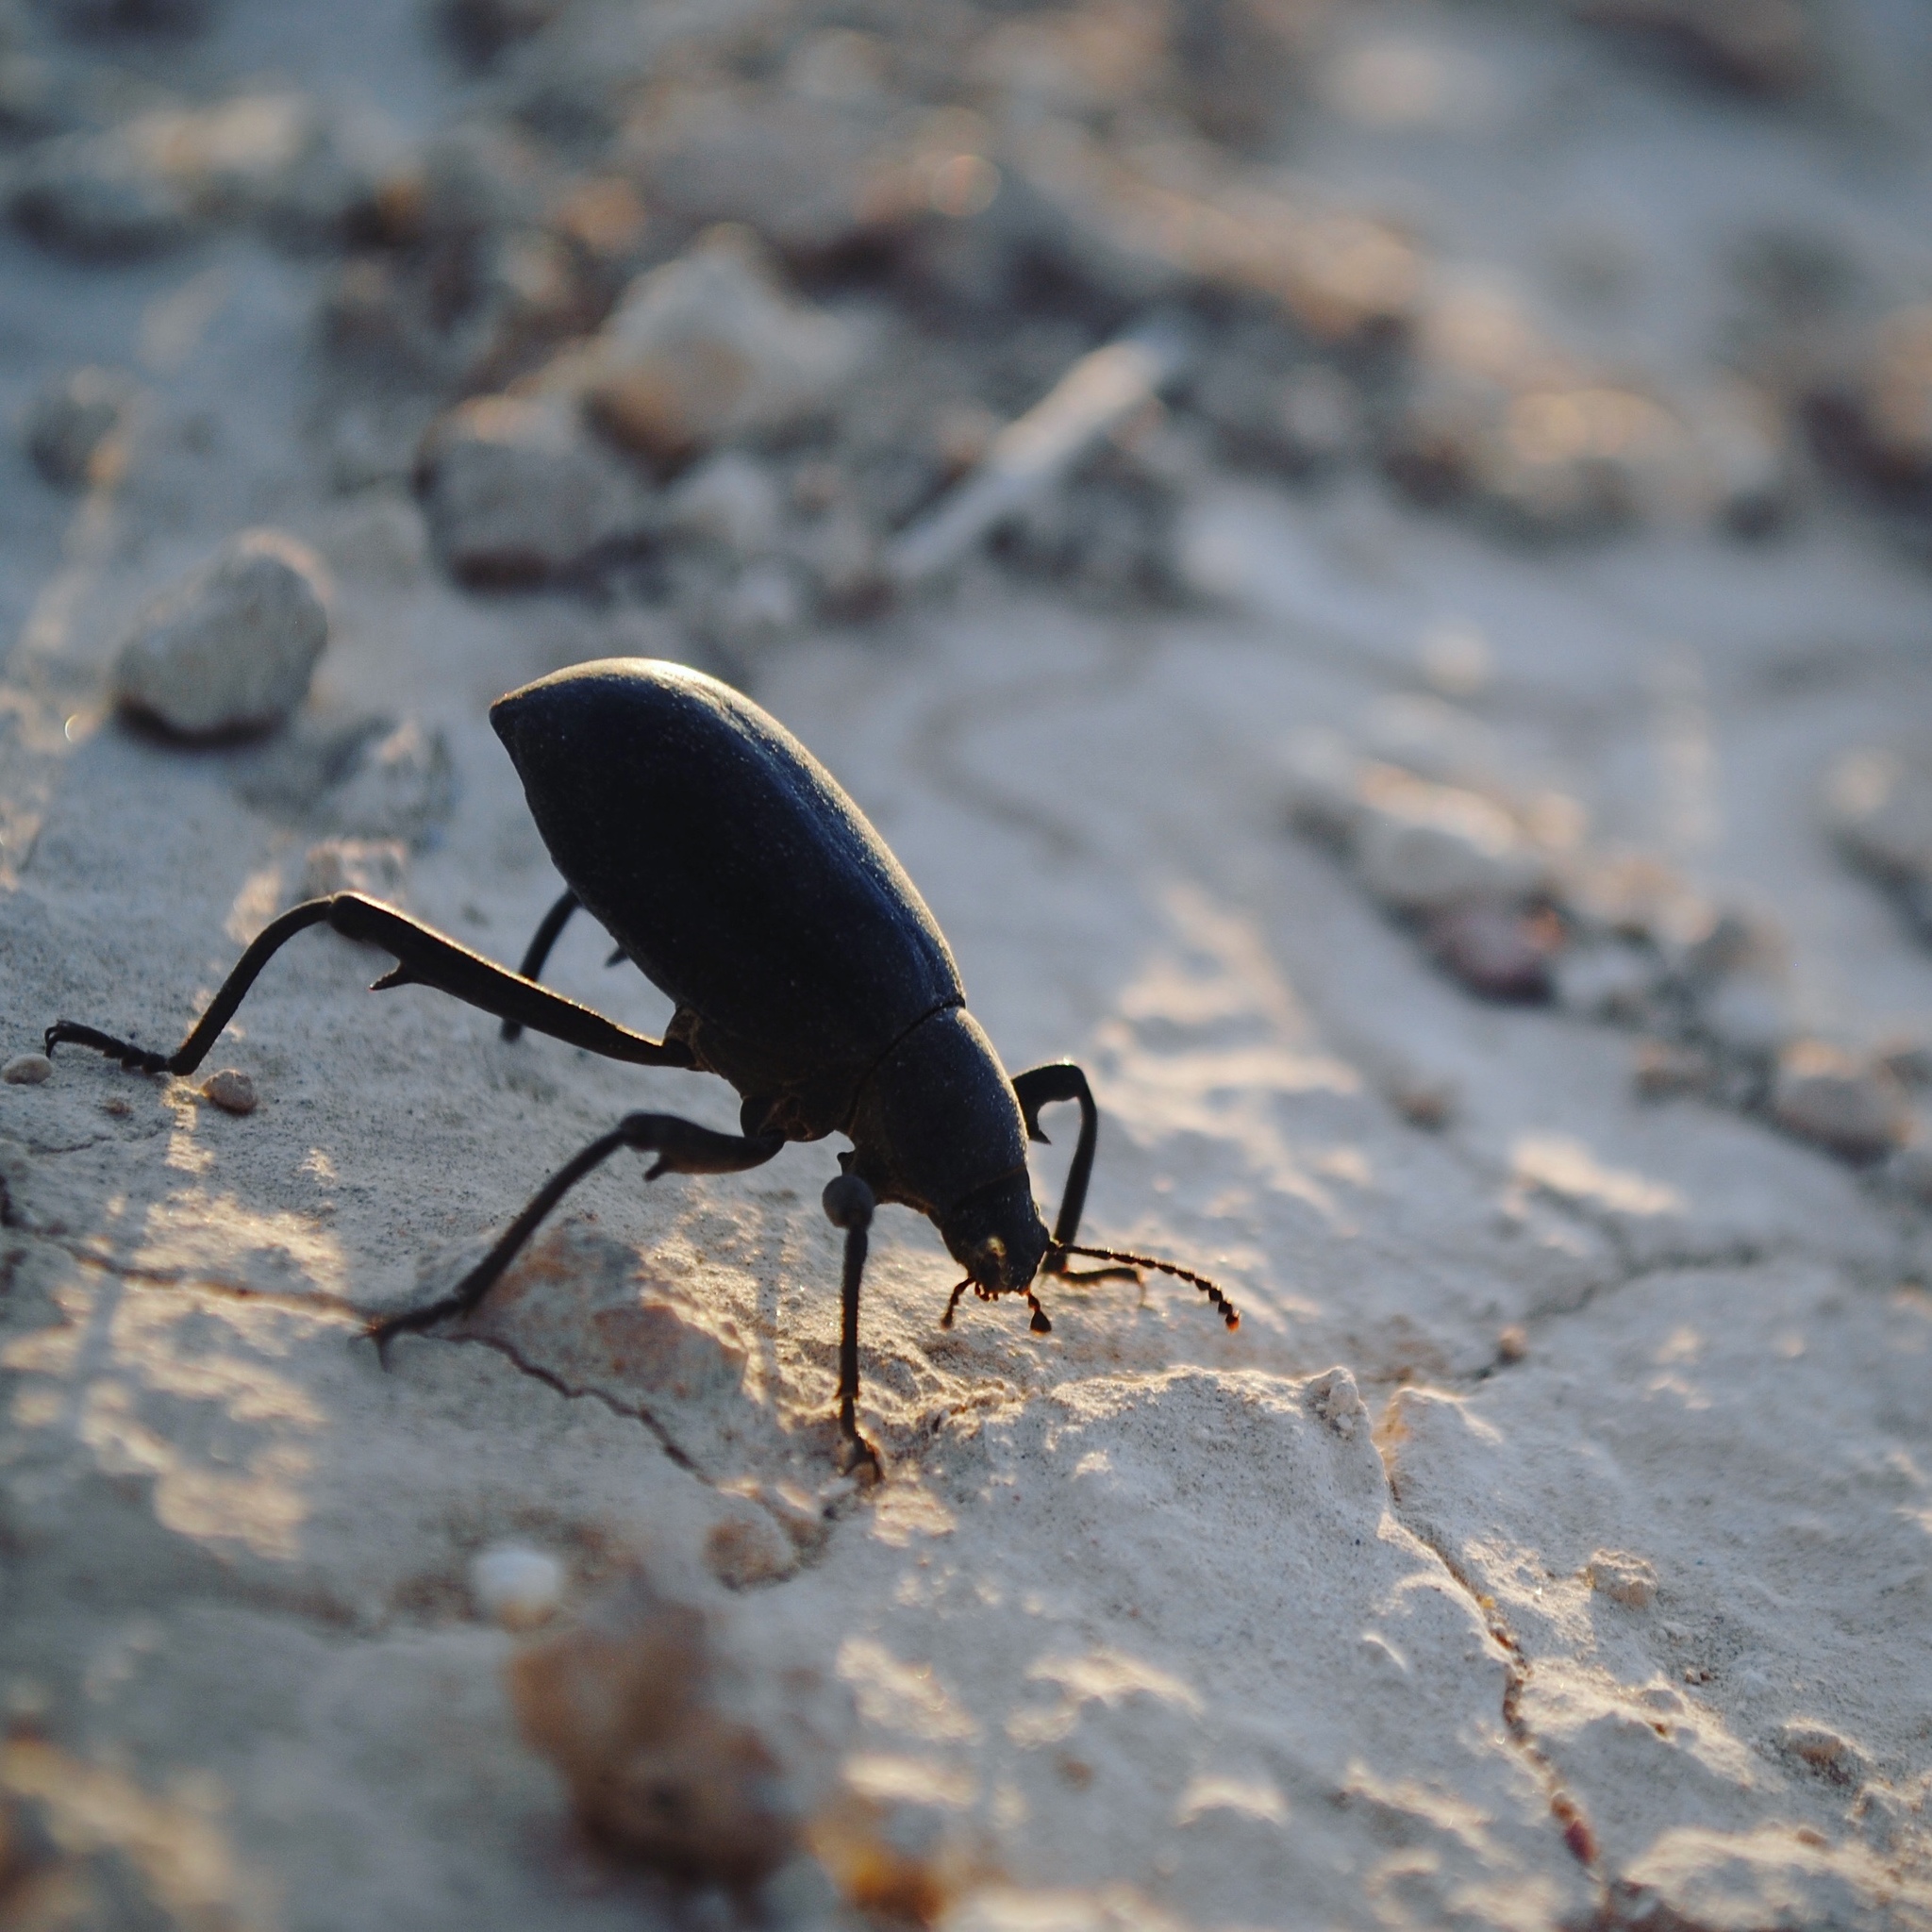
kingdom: Animalia
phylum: Arthropoda
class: Insecta
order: Coleoptera
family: Tenebrionidae
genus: Eleodes
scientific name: Eleodes armata
